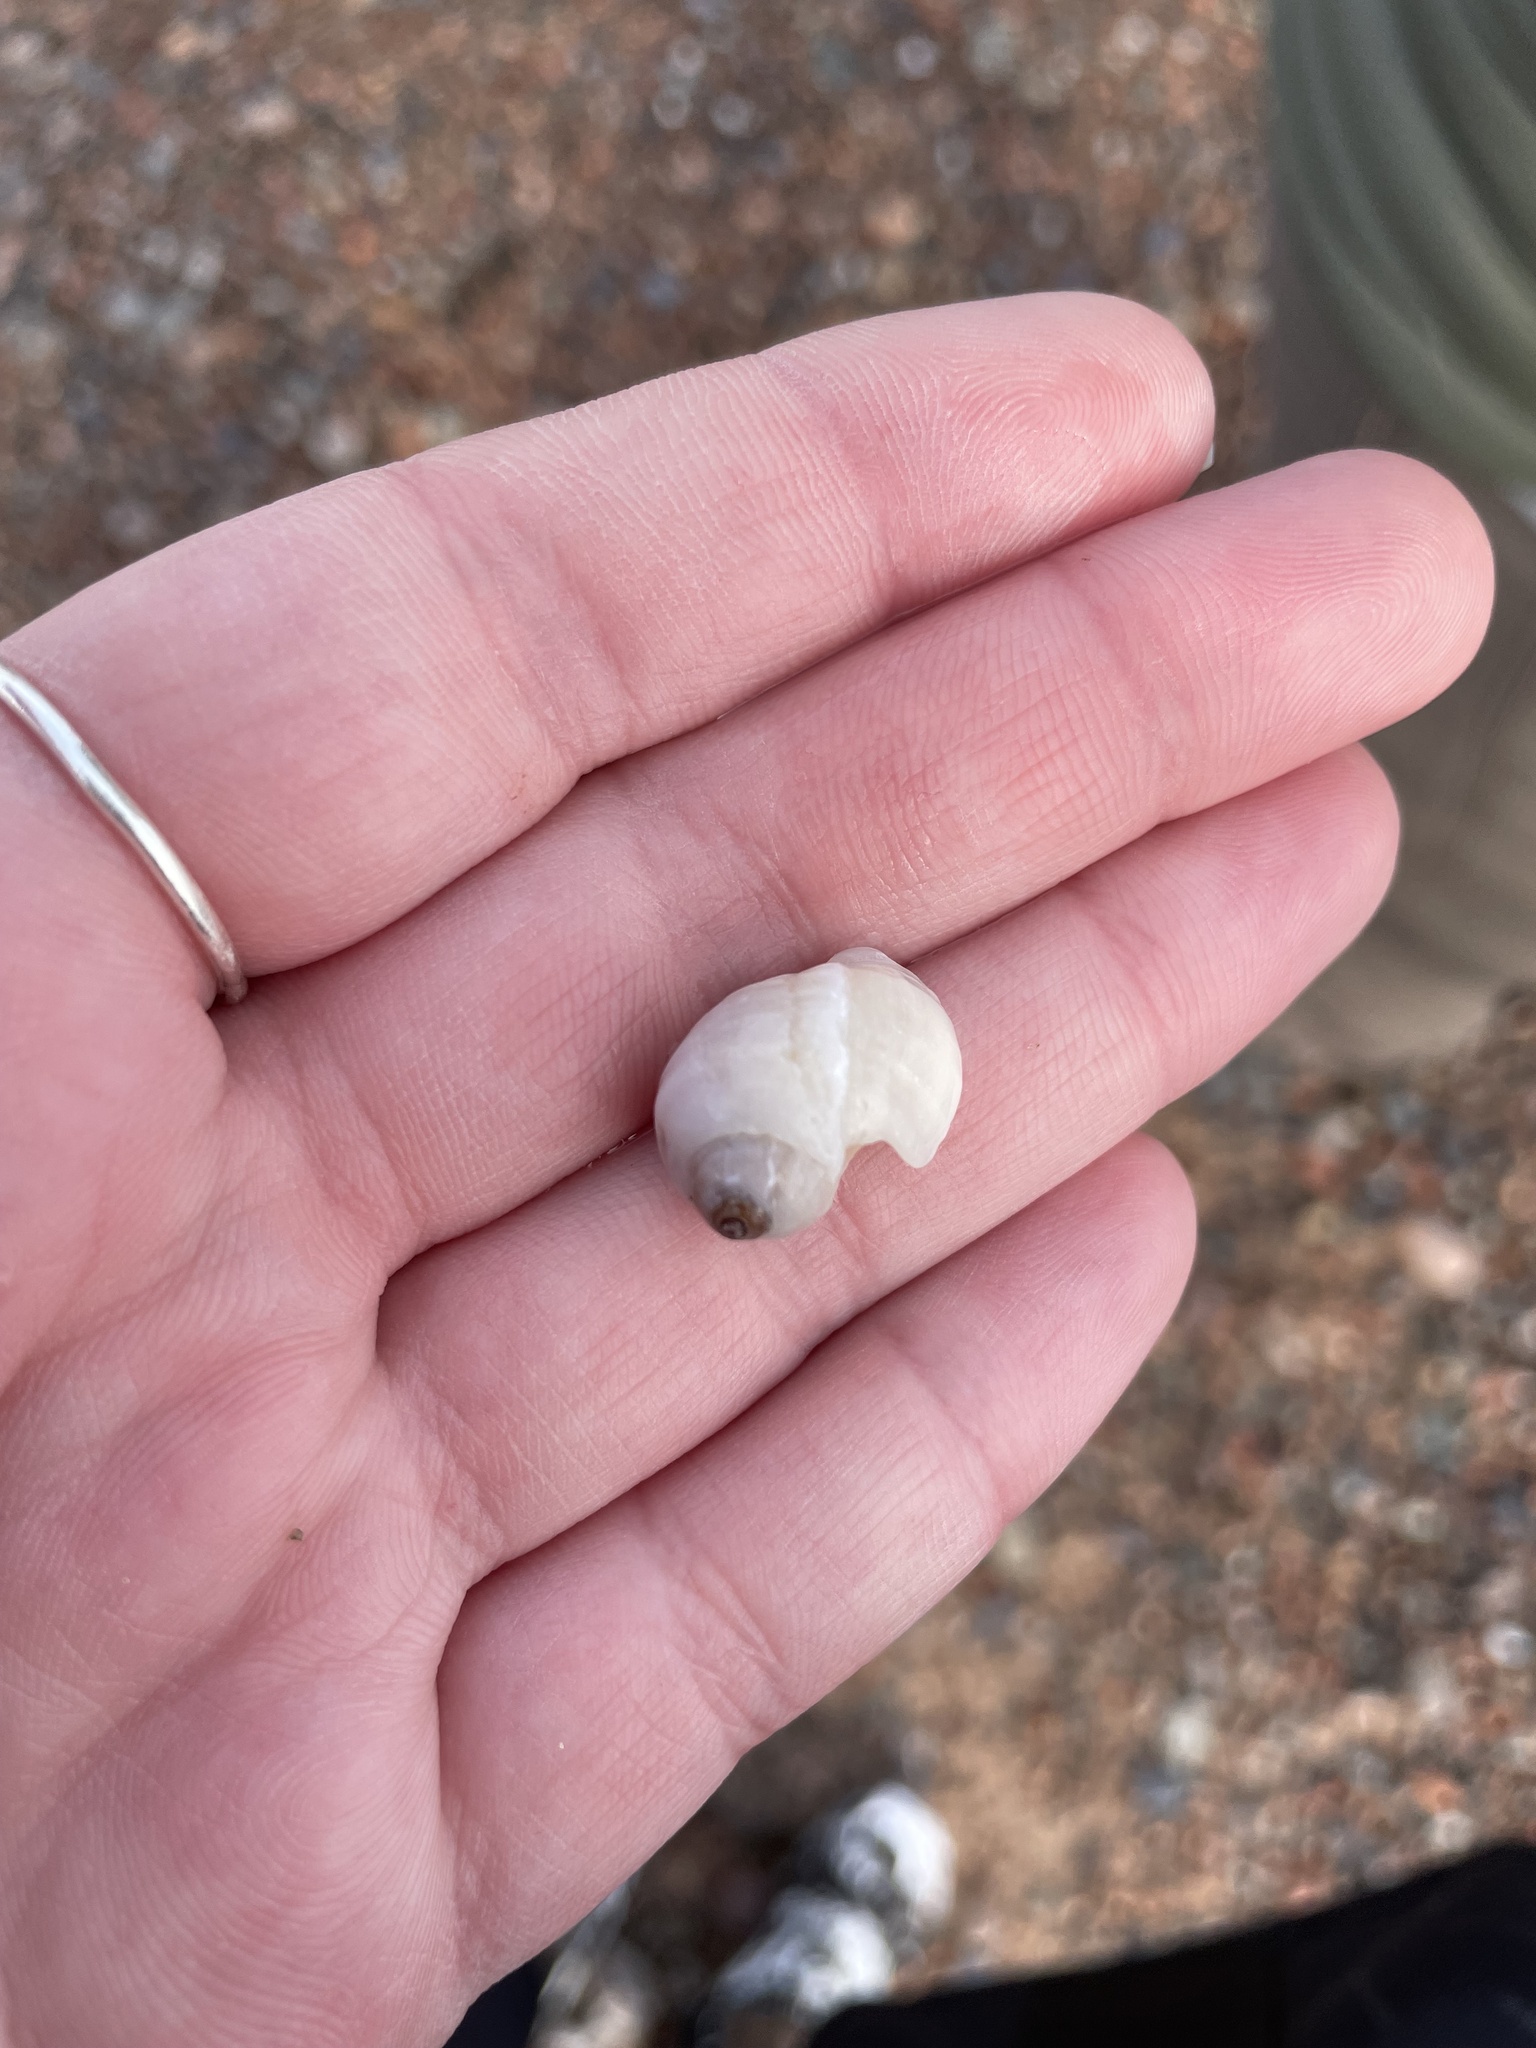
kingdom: Animalia
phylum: Mollusca
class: Gastropoda
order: Neogastropoda
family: Muricidae
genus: Nucella
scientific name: Nucella lapillus
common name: Dog whelk
